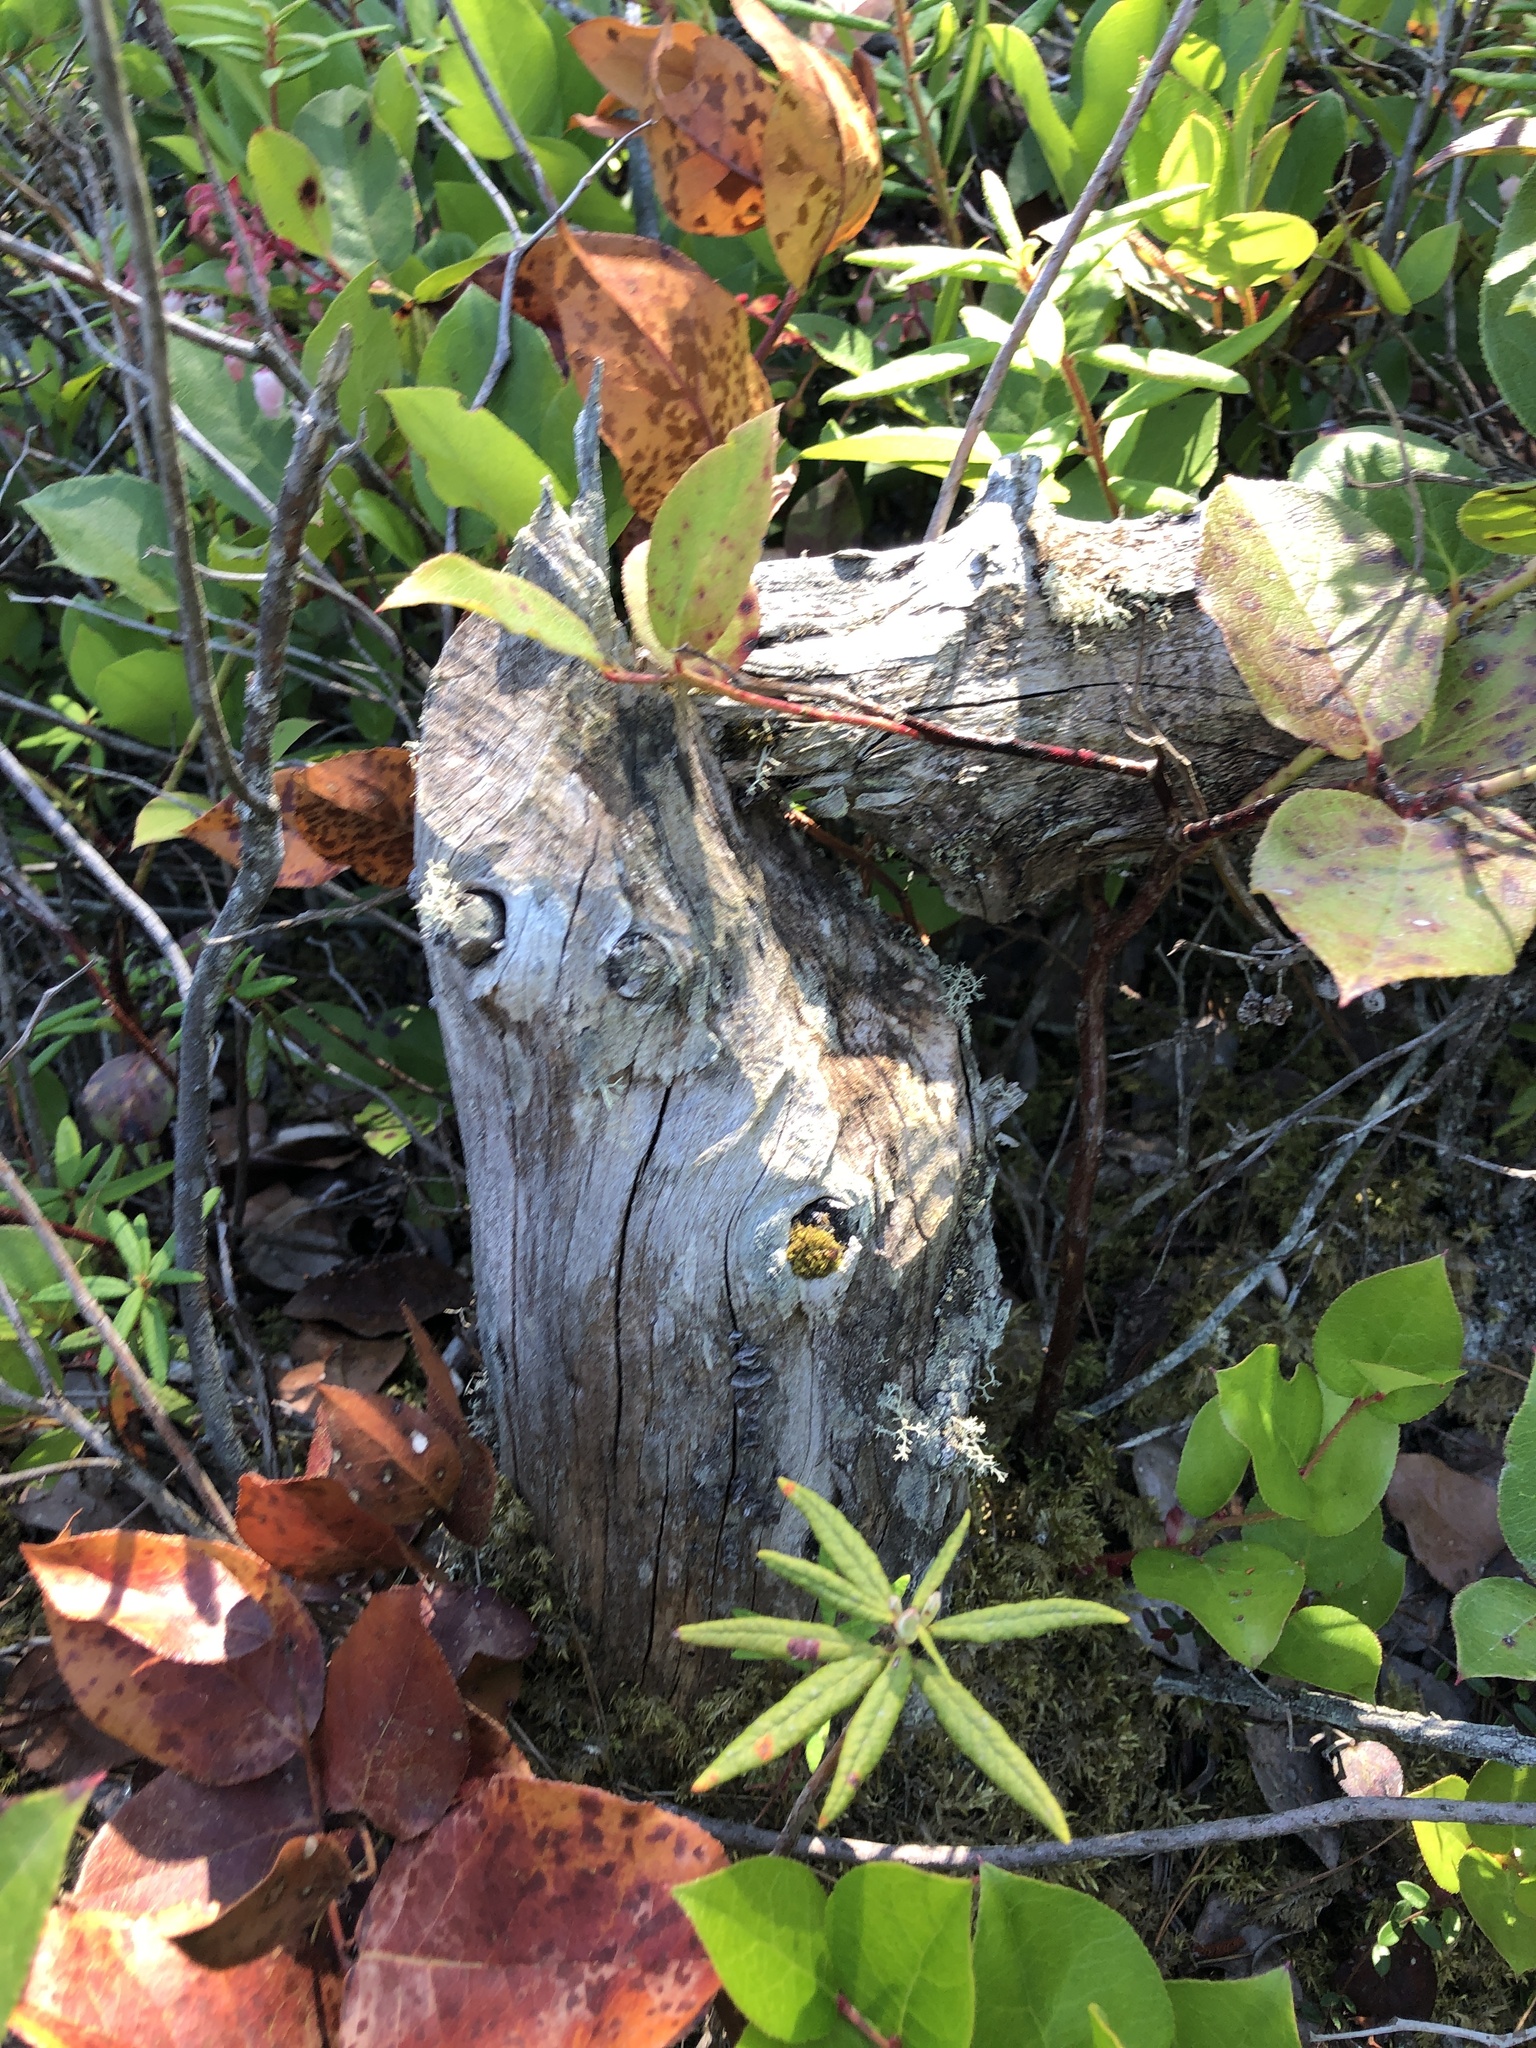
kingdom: Animalia
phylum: Chordata
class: Mammalia
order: Rodentia
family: Castoridae
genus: Castor
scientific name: Castor canadensis
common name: American beaver
